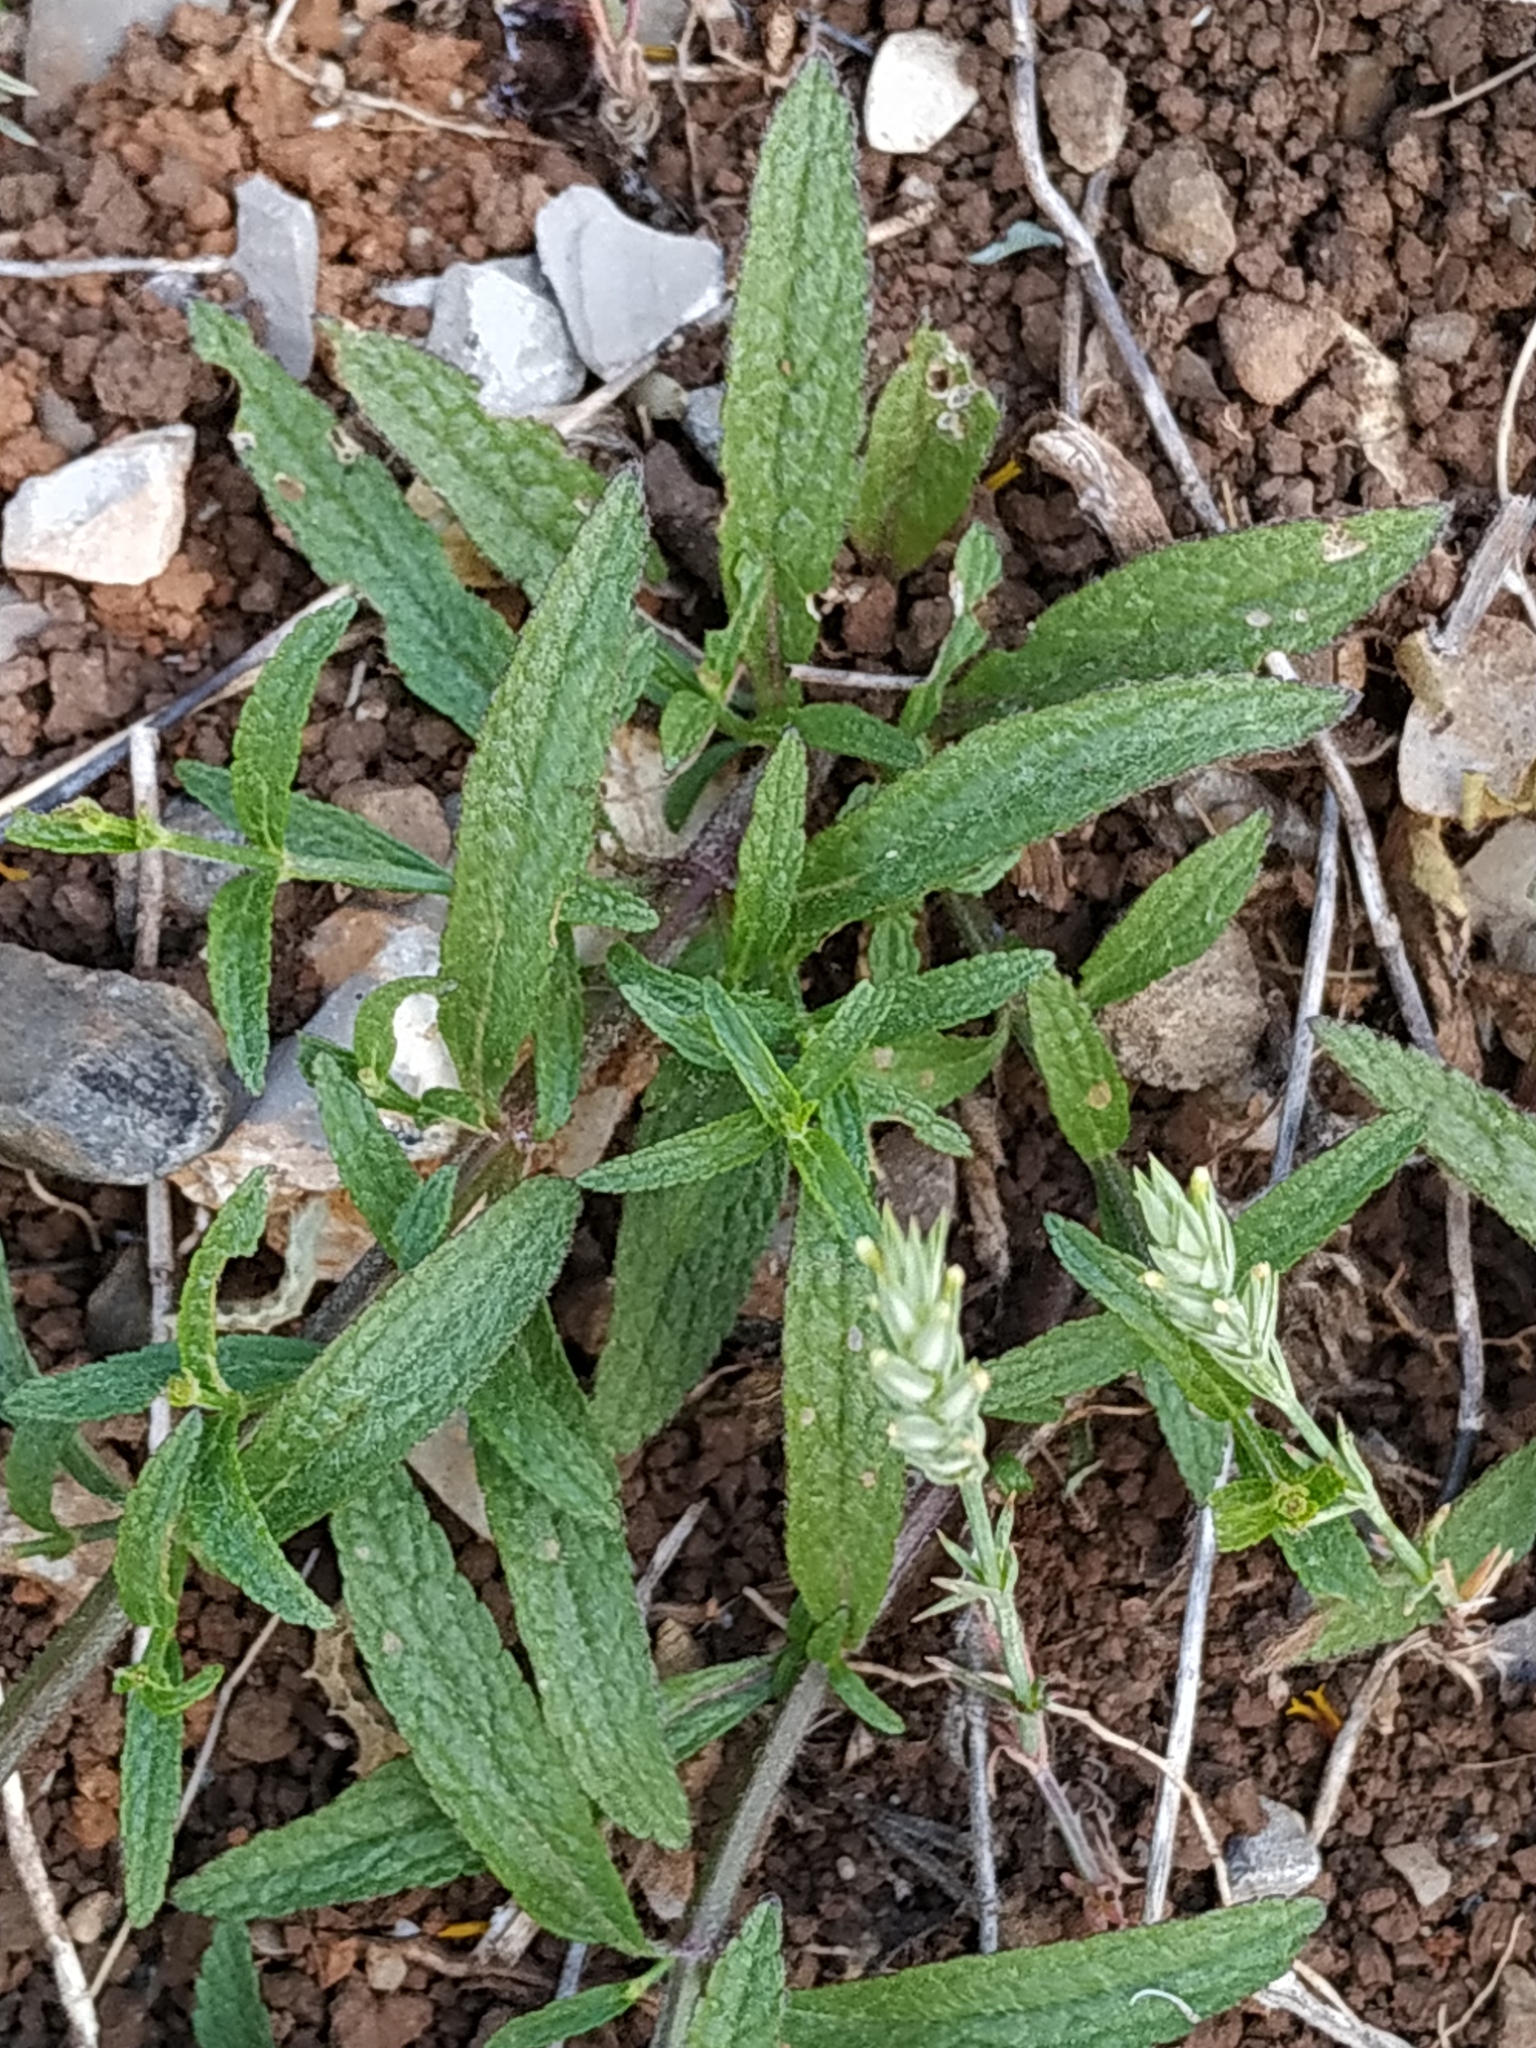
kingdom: Plantae
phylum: Tracheophyta
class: Magnoliopsida
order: Lamiales
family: Lamiaceae
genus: Stachys
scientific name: Stachys recta
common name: Perennial yellow-woundwort
